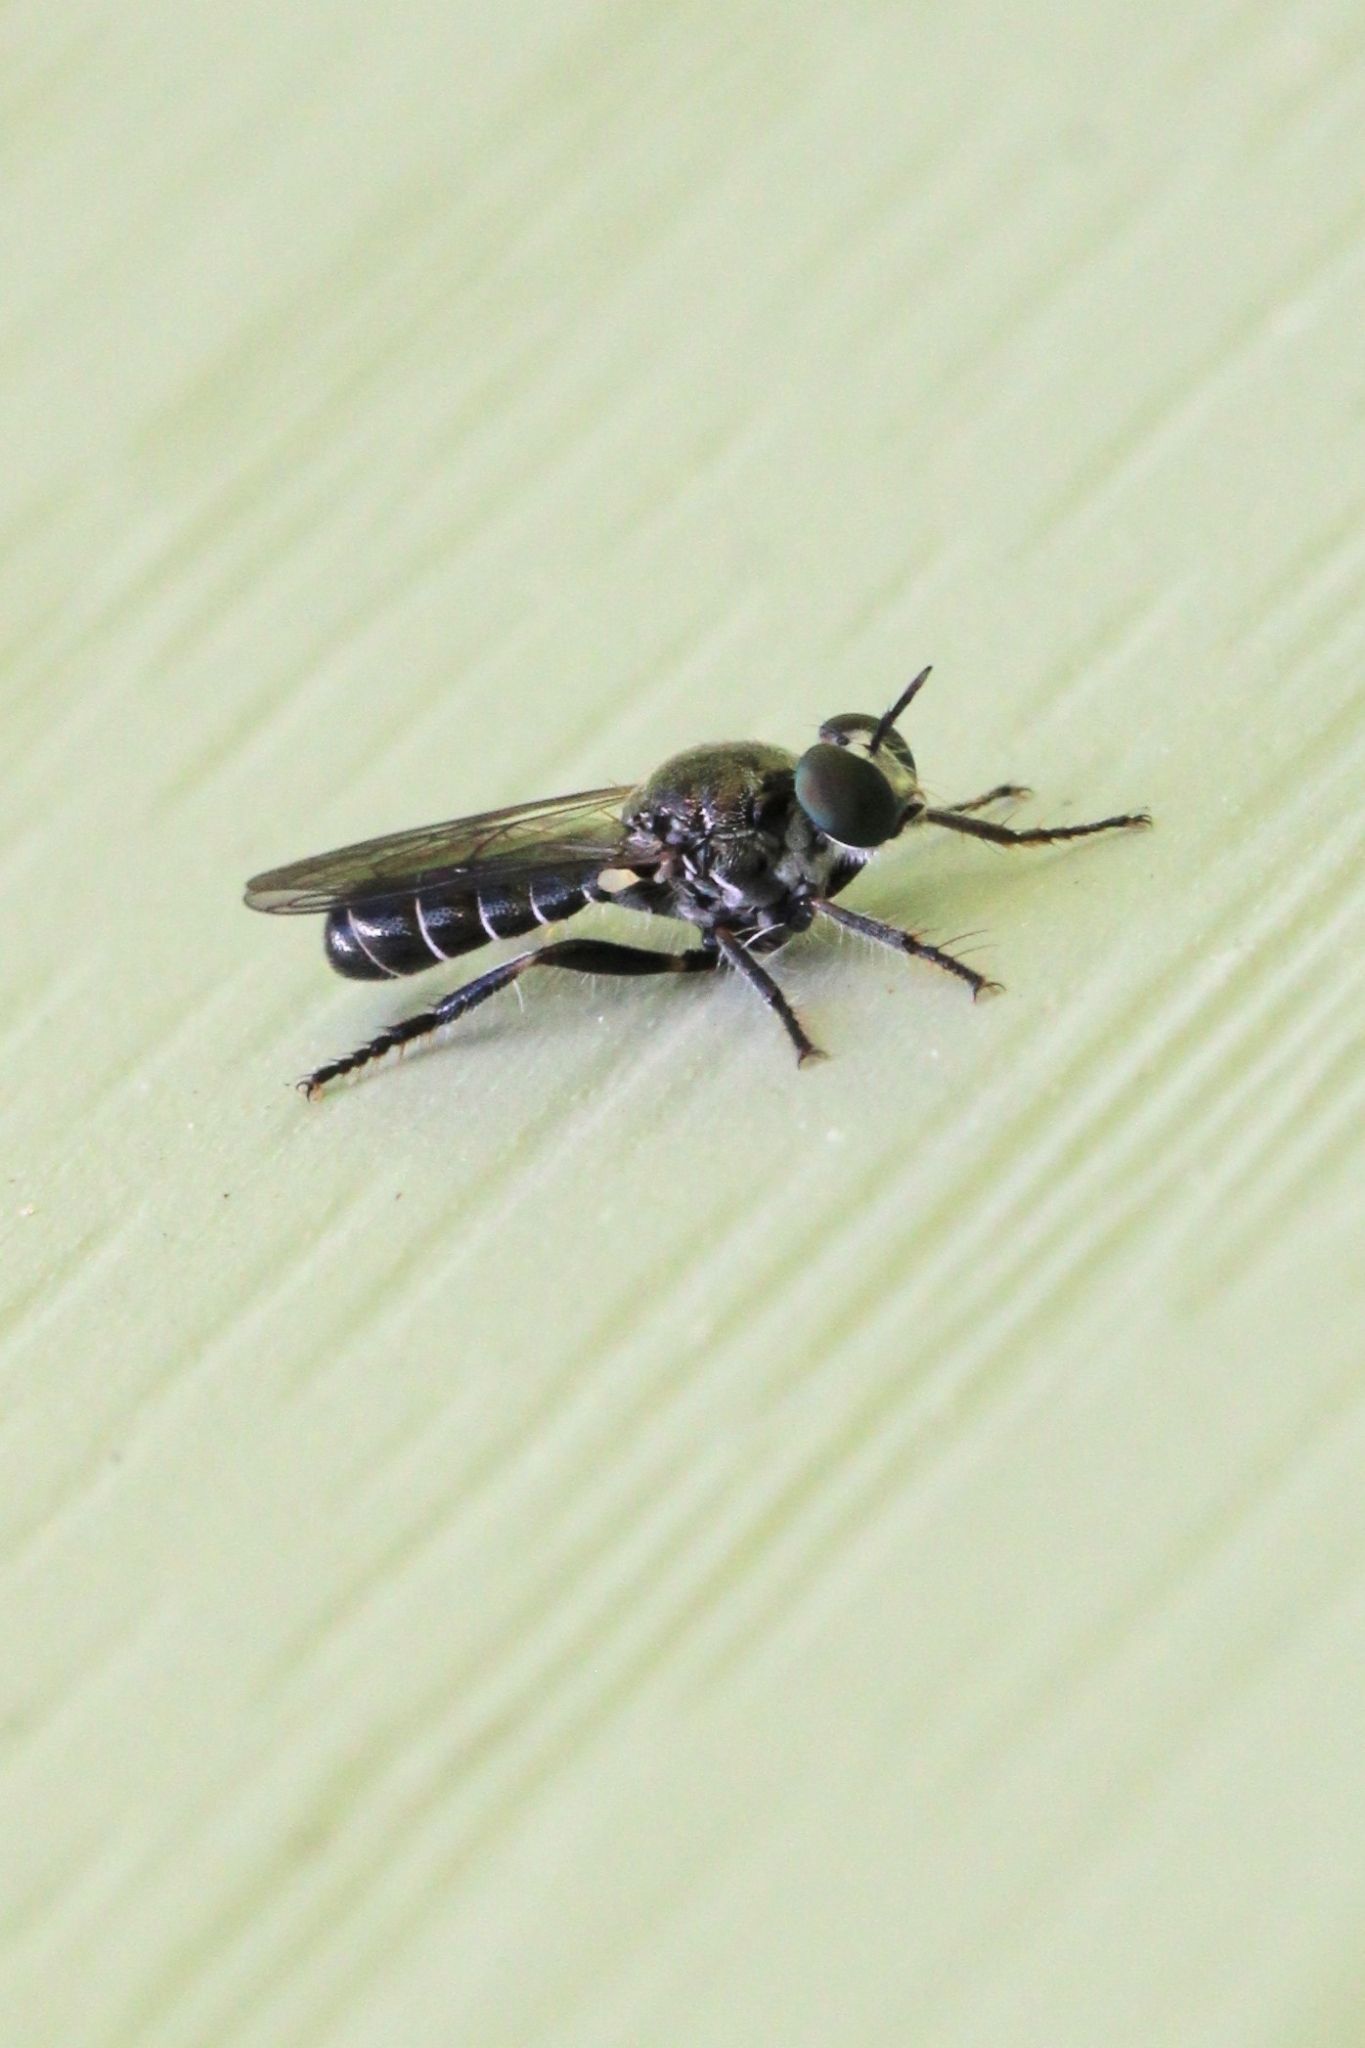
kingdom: Animalia
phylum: Arthropoda
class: Insecta
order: Diptera
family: Asilidae
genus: Atomosia
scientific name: Atomosia puella
